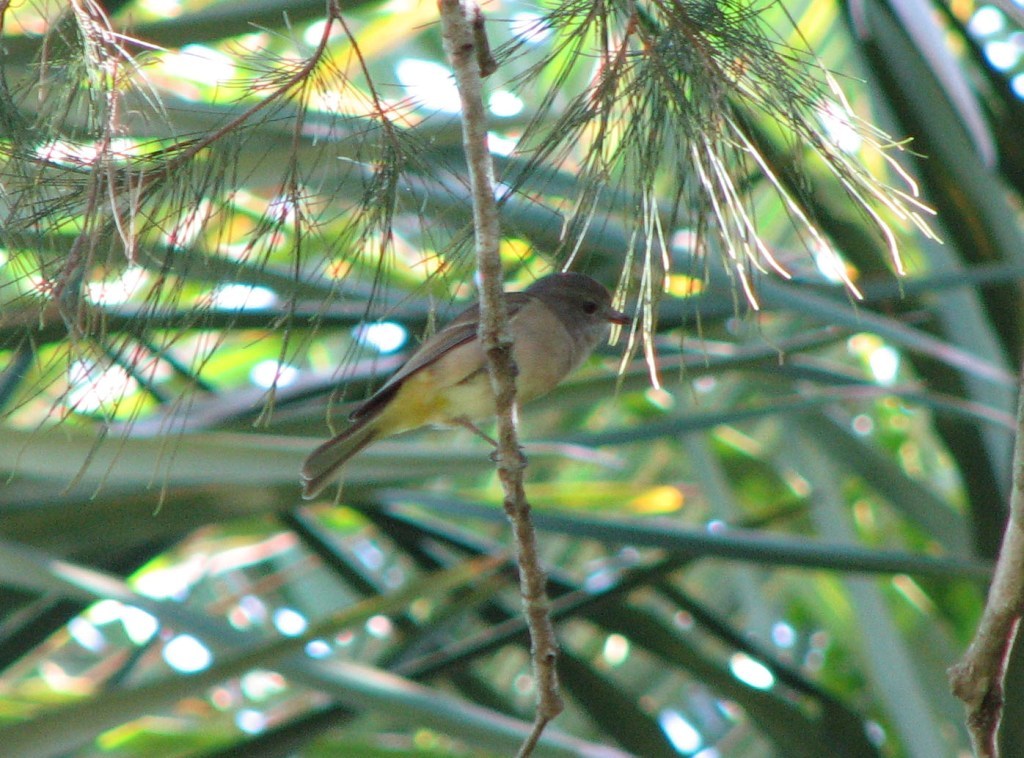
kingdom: Animalia
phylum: Chordata
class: Aves
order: Passeriformes
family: Pachycephalidae
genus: Pachycephala
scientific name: Pachycephala pectoralis
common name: Australian golden whistler
